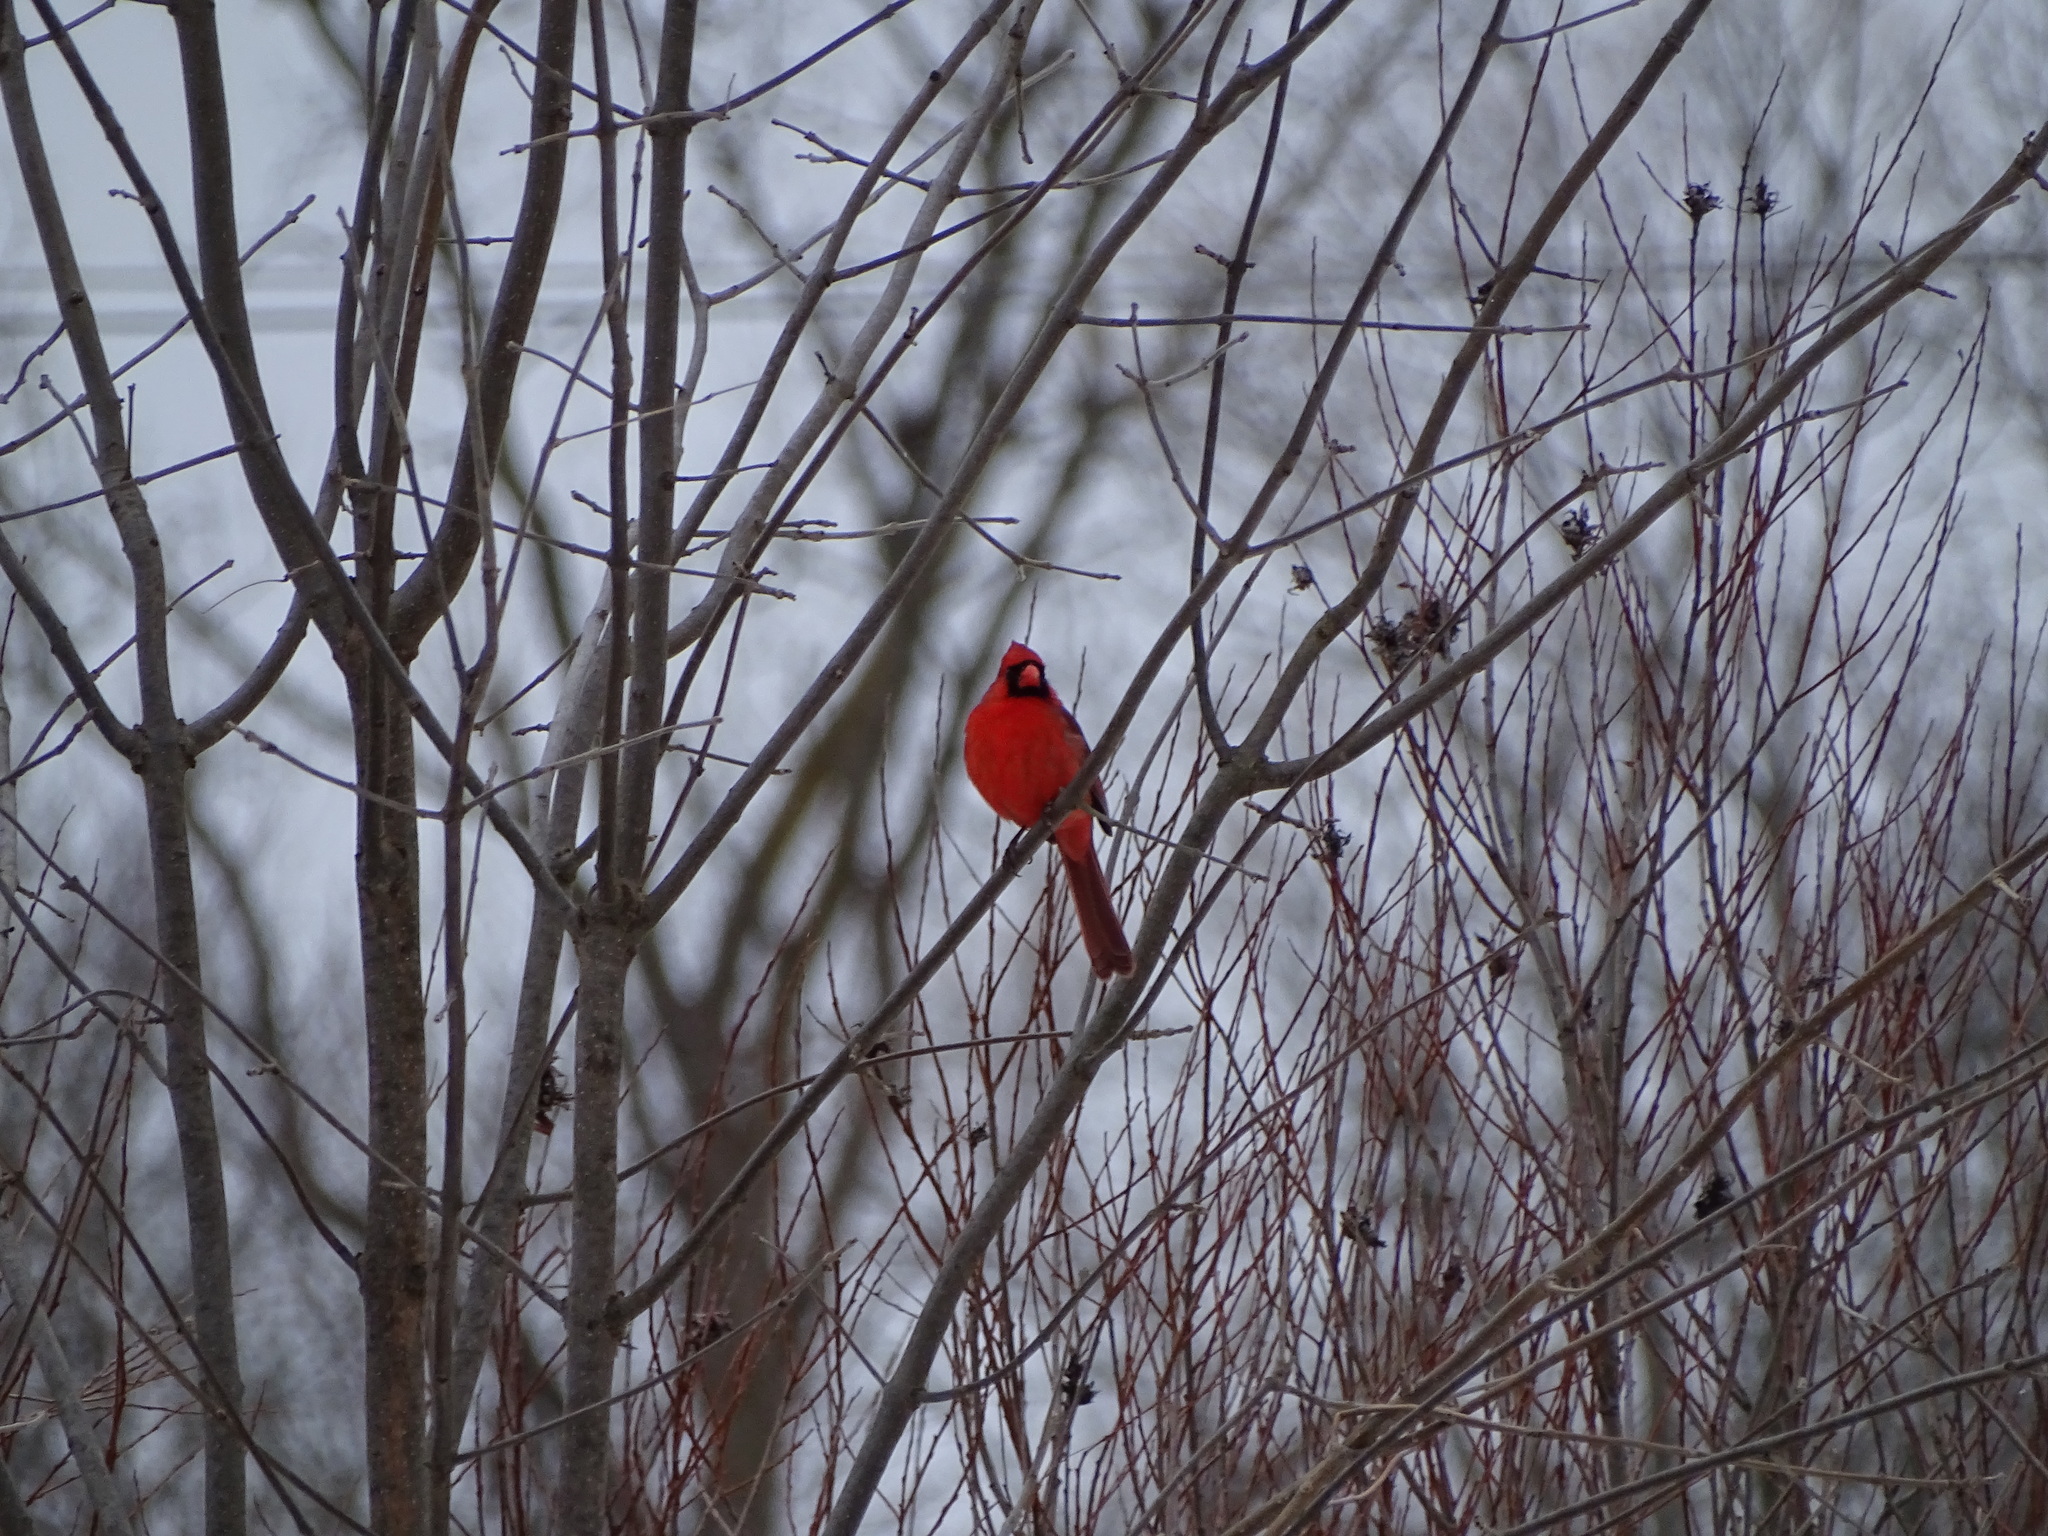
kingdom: Animalia
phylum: Chordata
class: Aves
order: Passeriformes
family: Cardinalidae
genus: Cardinalis
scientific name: Cardinalis cardinalis
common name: Northern cardinal
